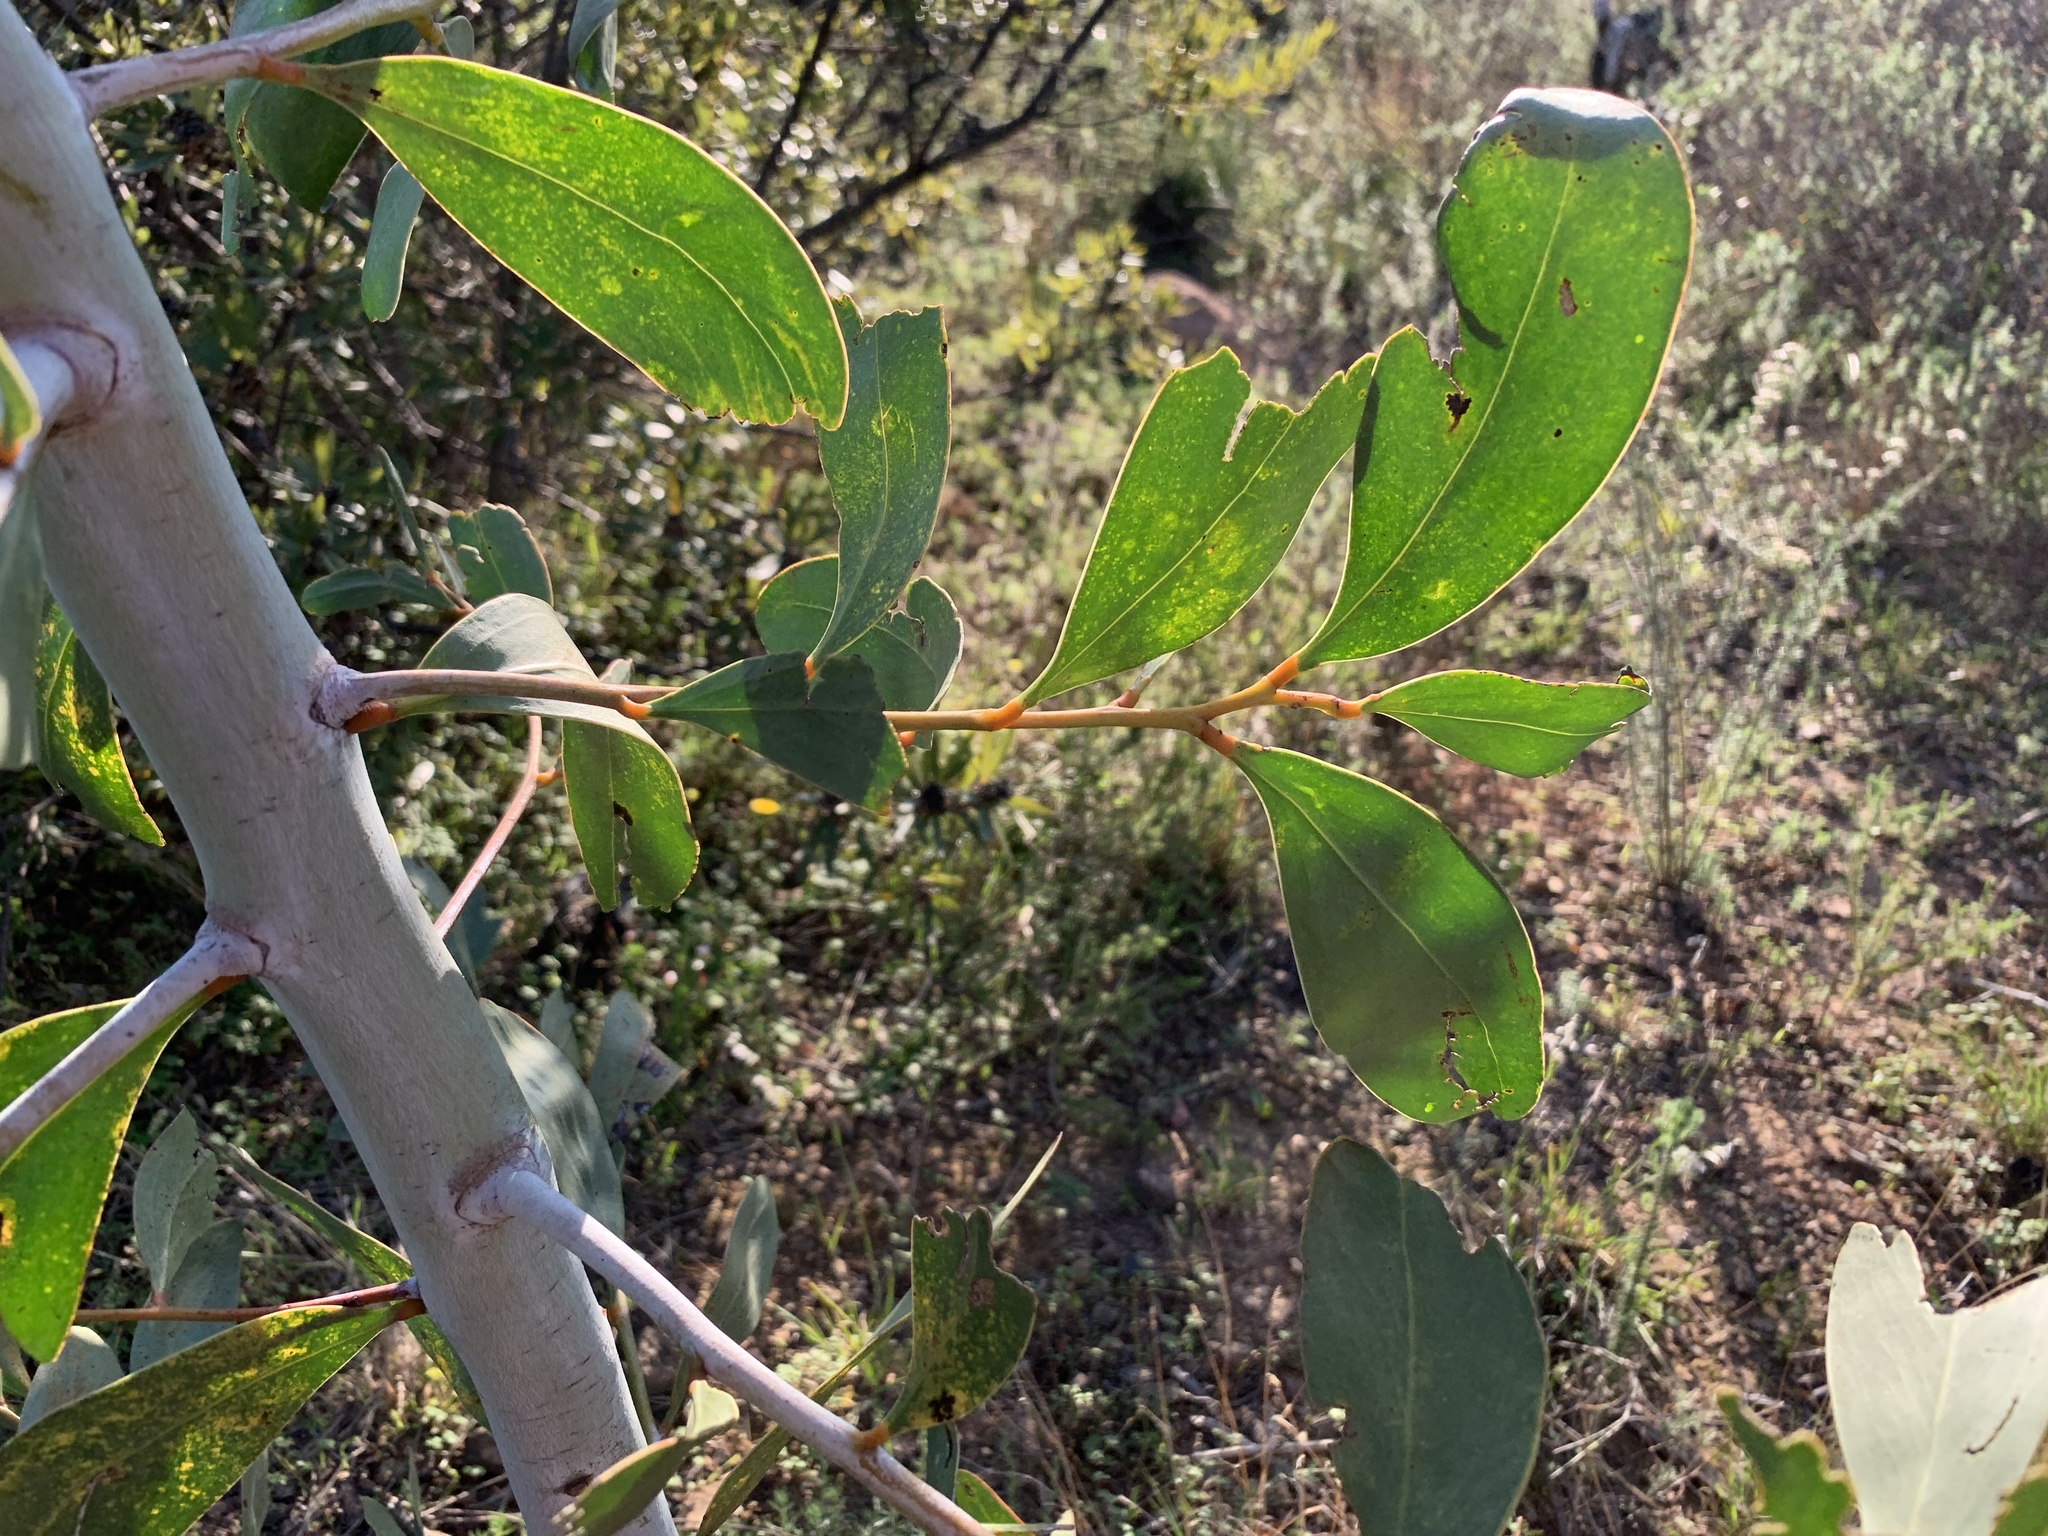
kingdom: Plantae
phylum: Tracheophyta
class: Magnoliopsida
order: Fabales
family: Fabaceae
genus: Acacia
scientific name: Acacia pycnantha
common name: Golden wattle
